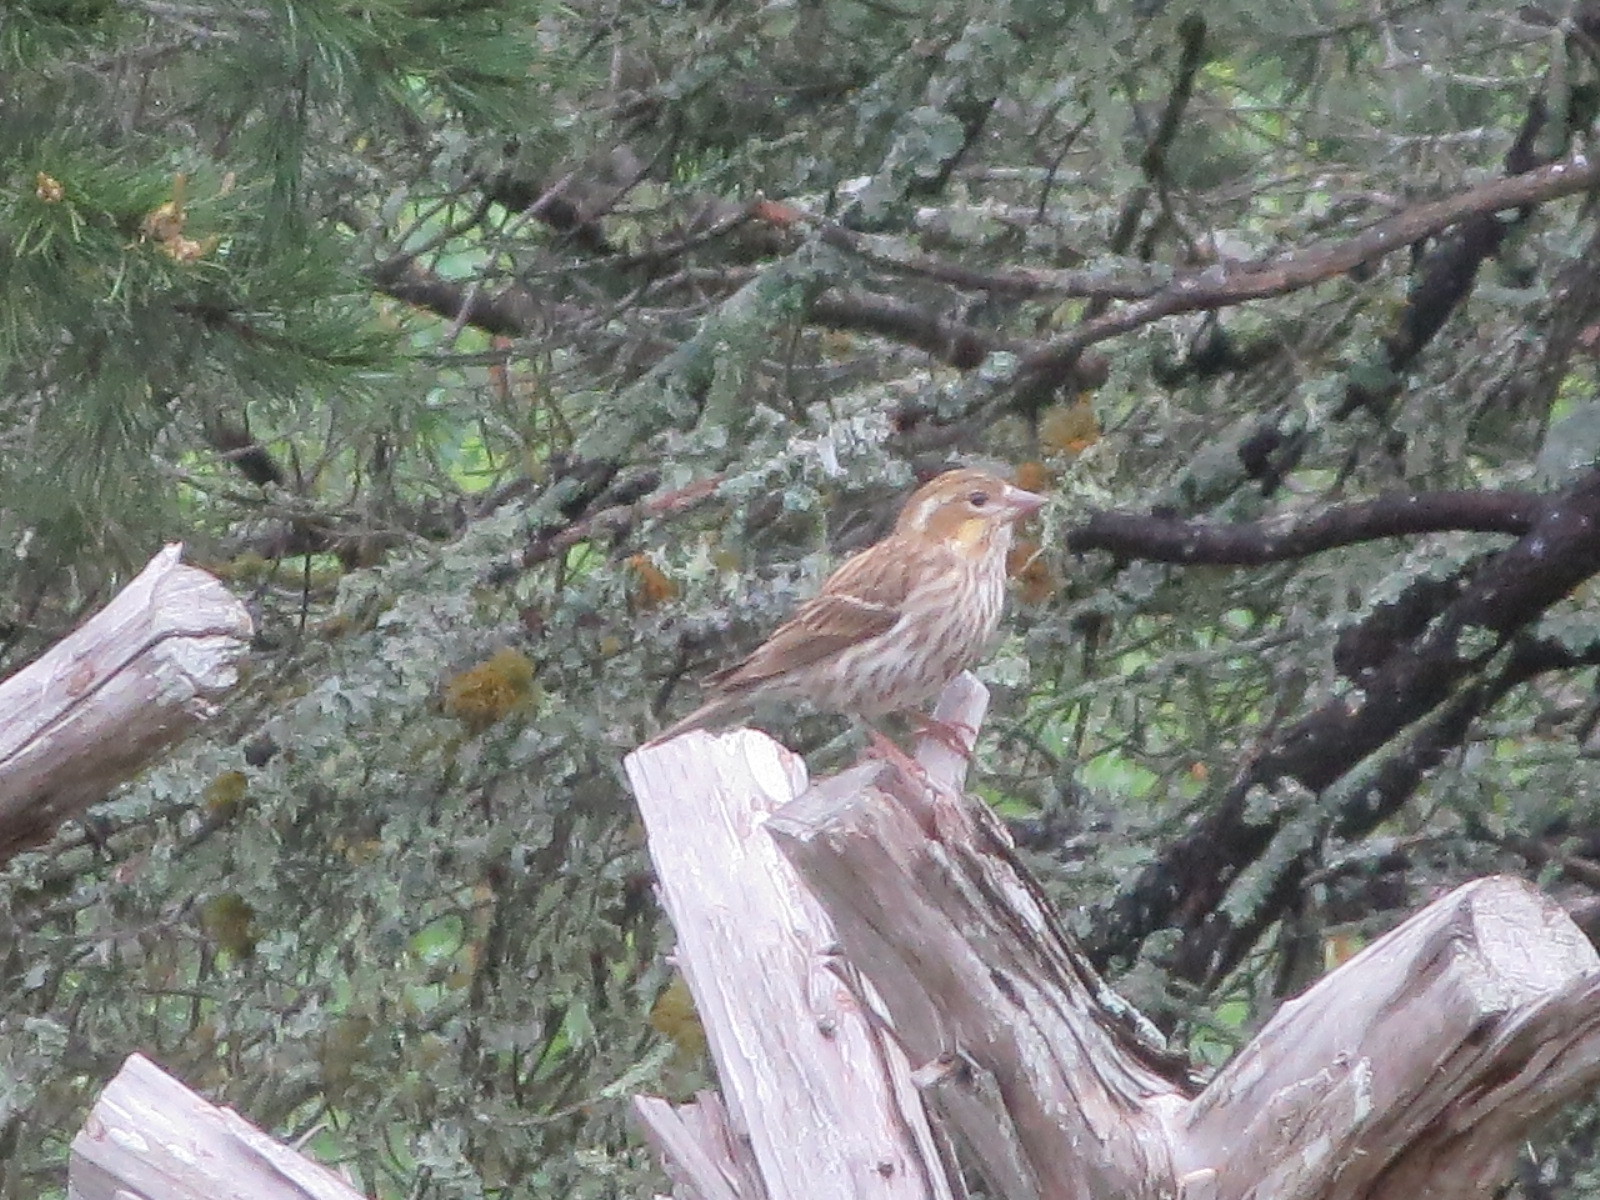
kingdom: Animalia
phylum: Chordata
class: Aves
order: Passeriformes
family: Fringillidae
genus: Haemorhous
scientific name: Haemorhous cassinii
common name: Cassin's finch
